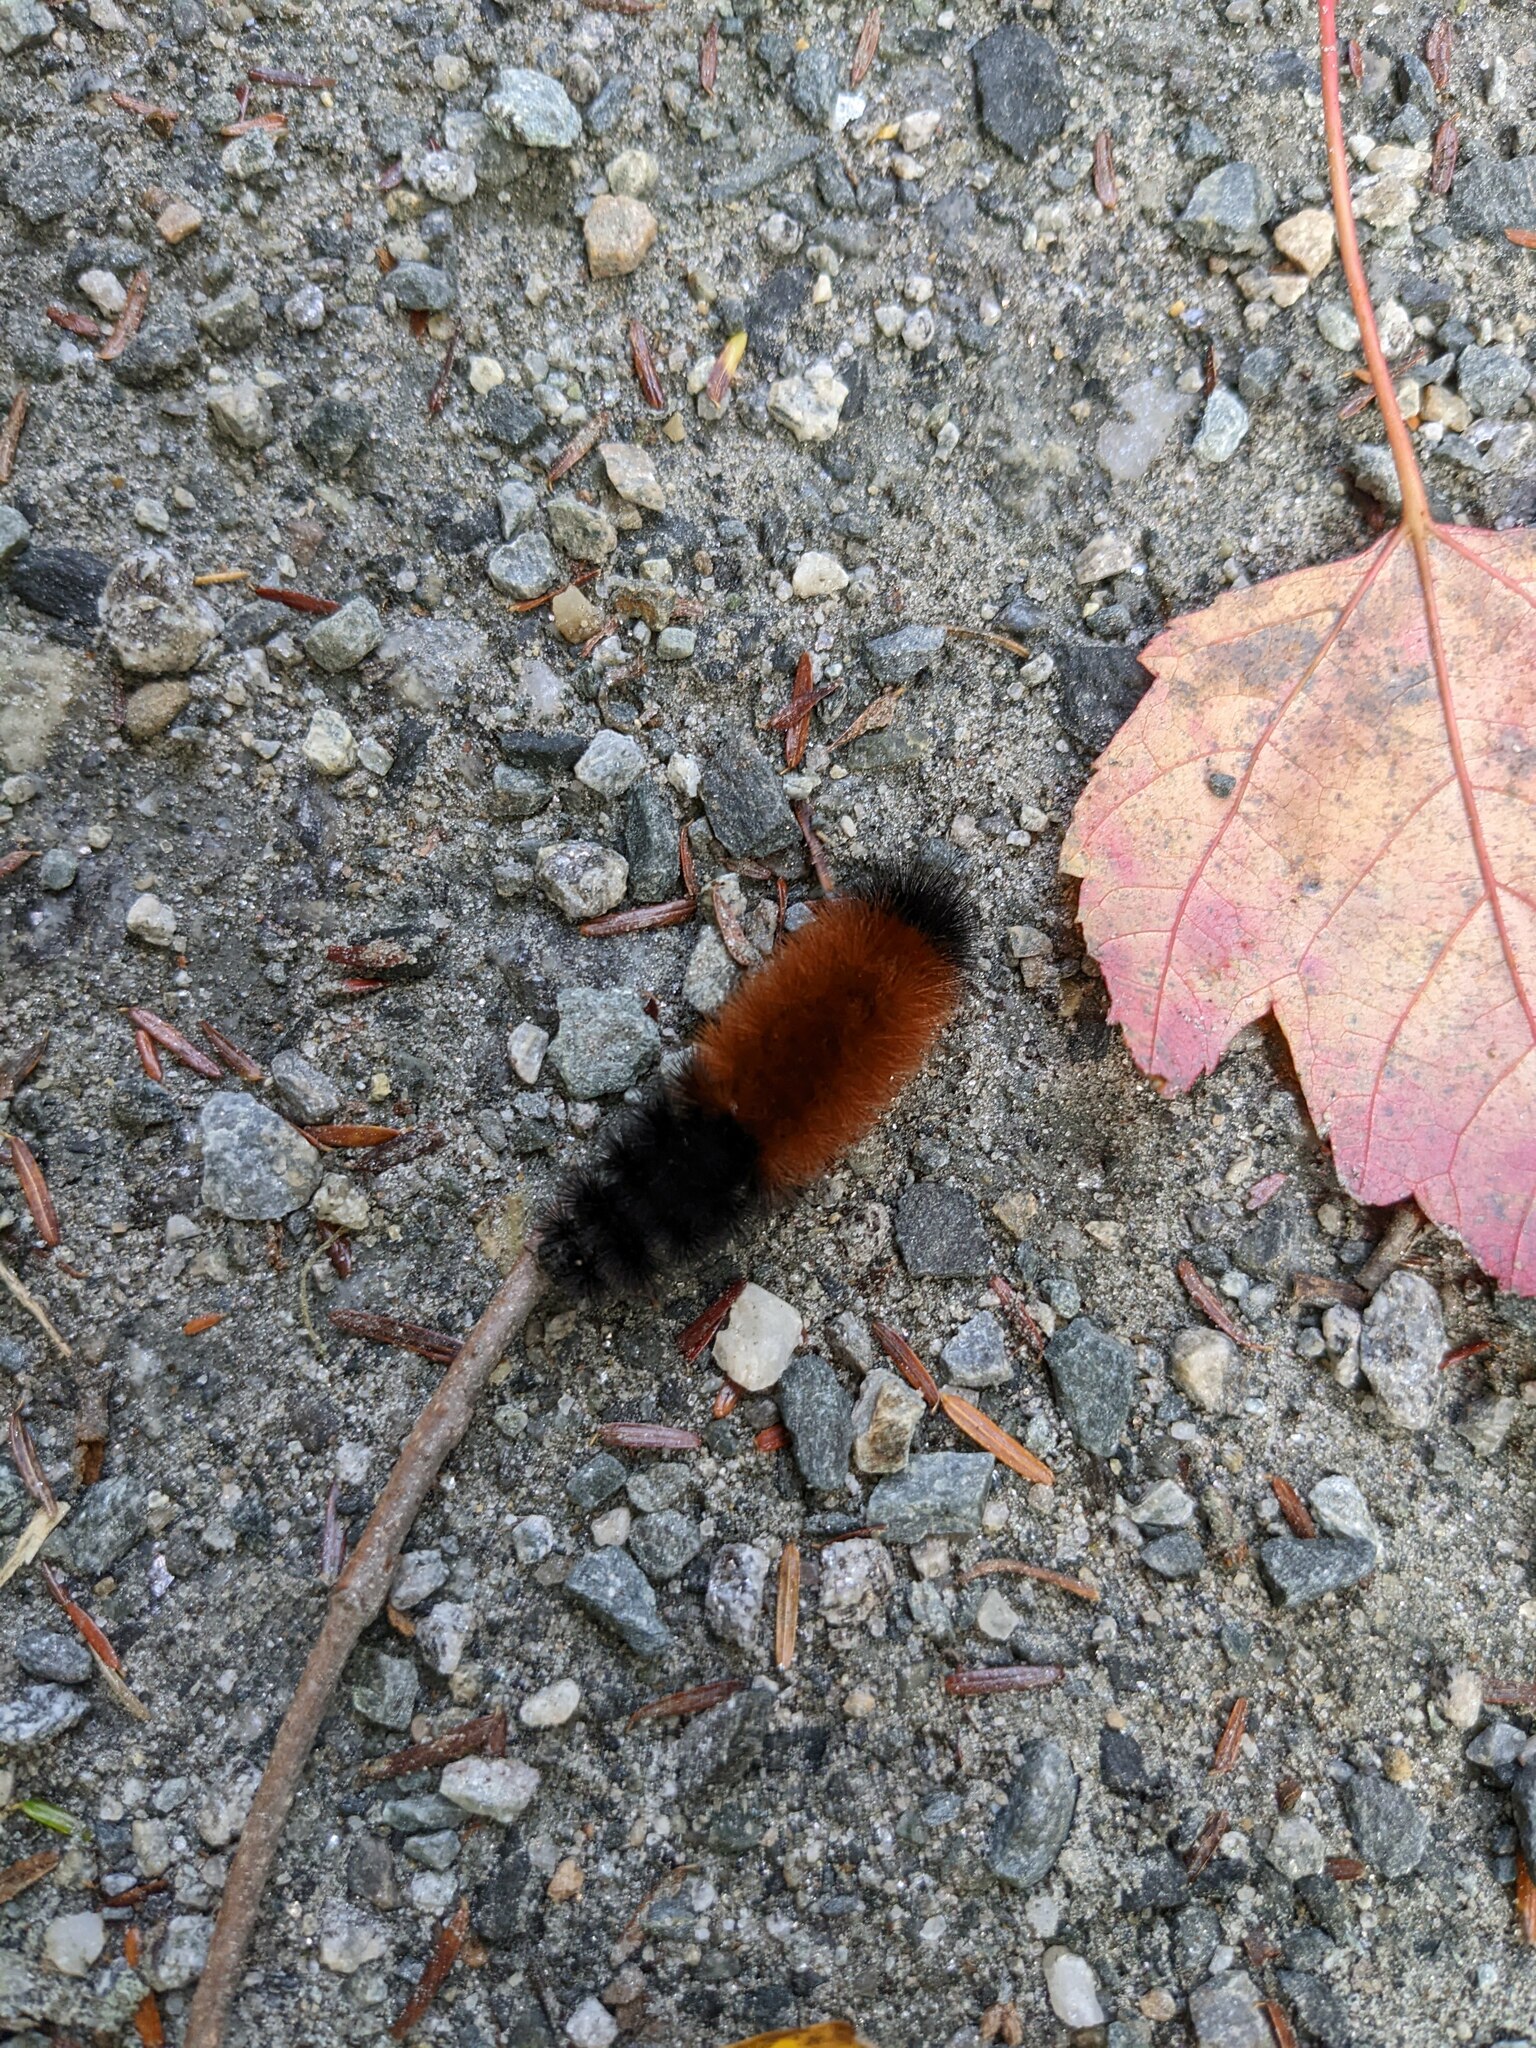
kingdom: Animalia
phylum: Arthropoda
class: Insecta
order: Lepidoptera
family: Erebidae
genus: Pyrrharctia
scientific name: Pyrrharctia isabella
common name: Isabella tiger moth
